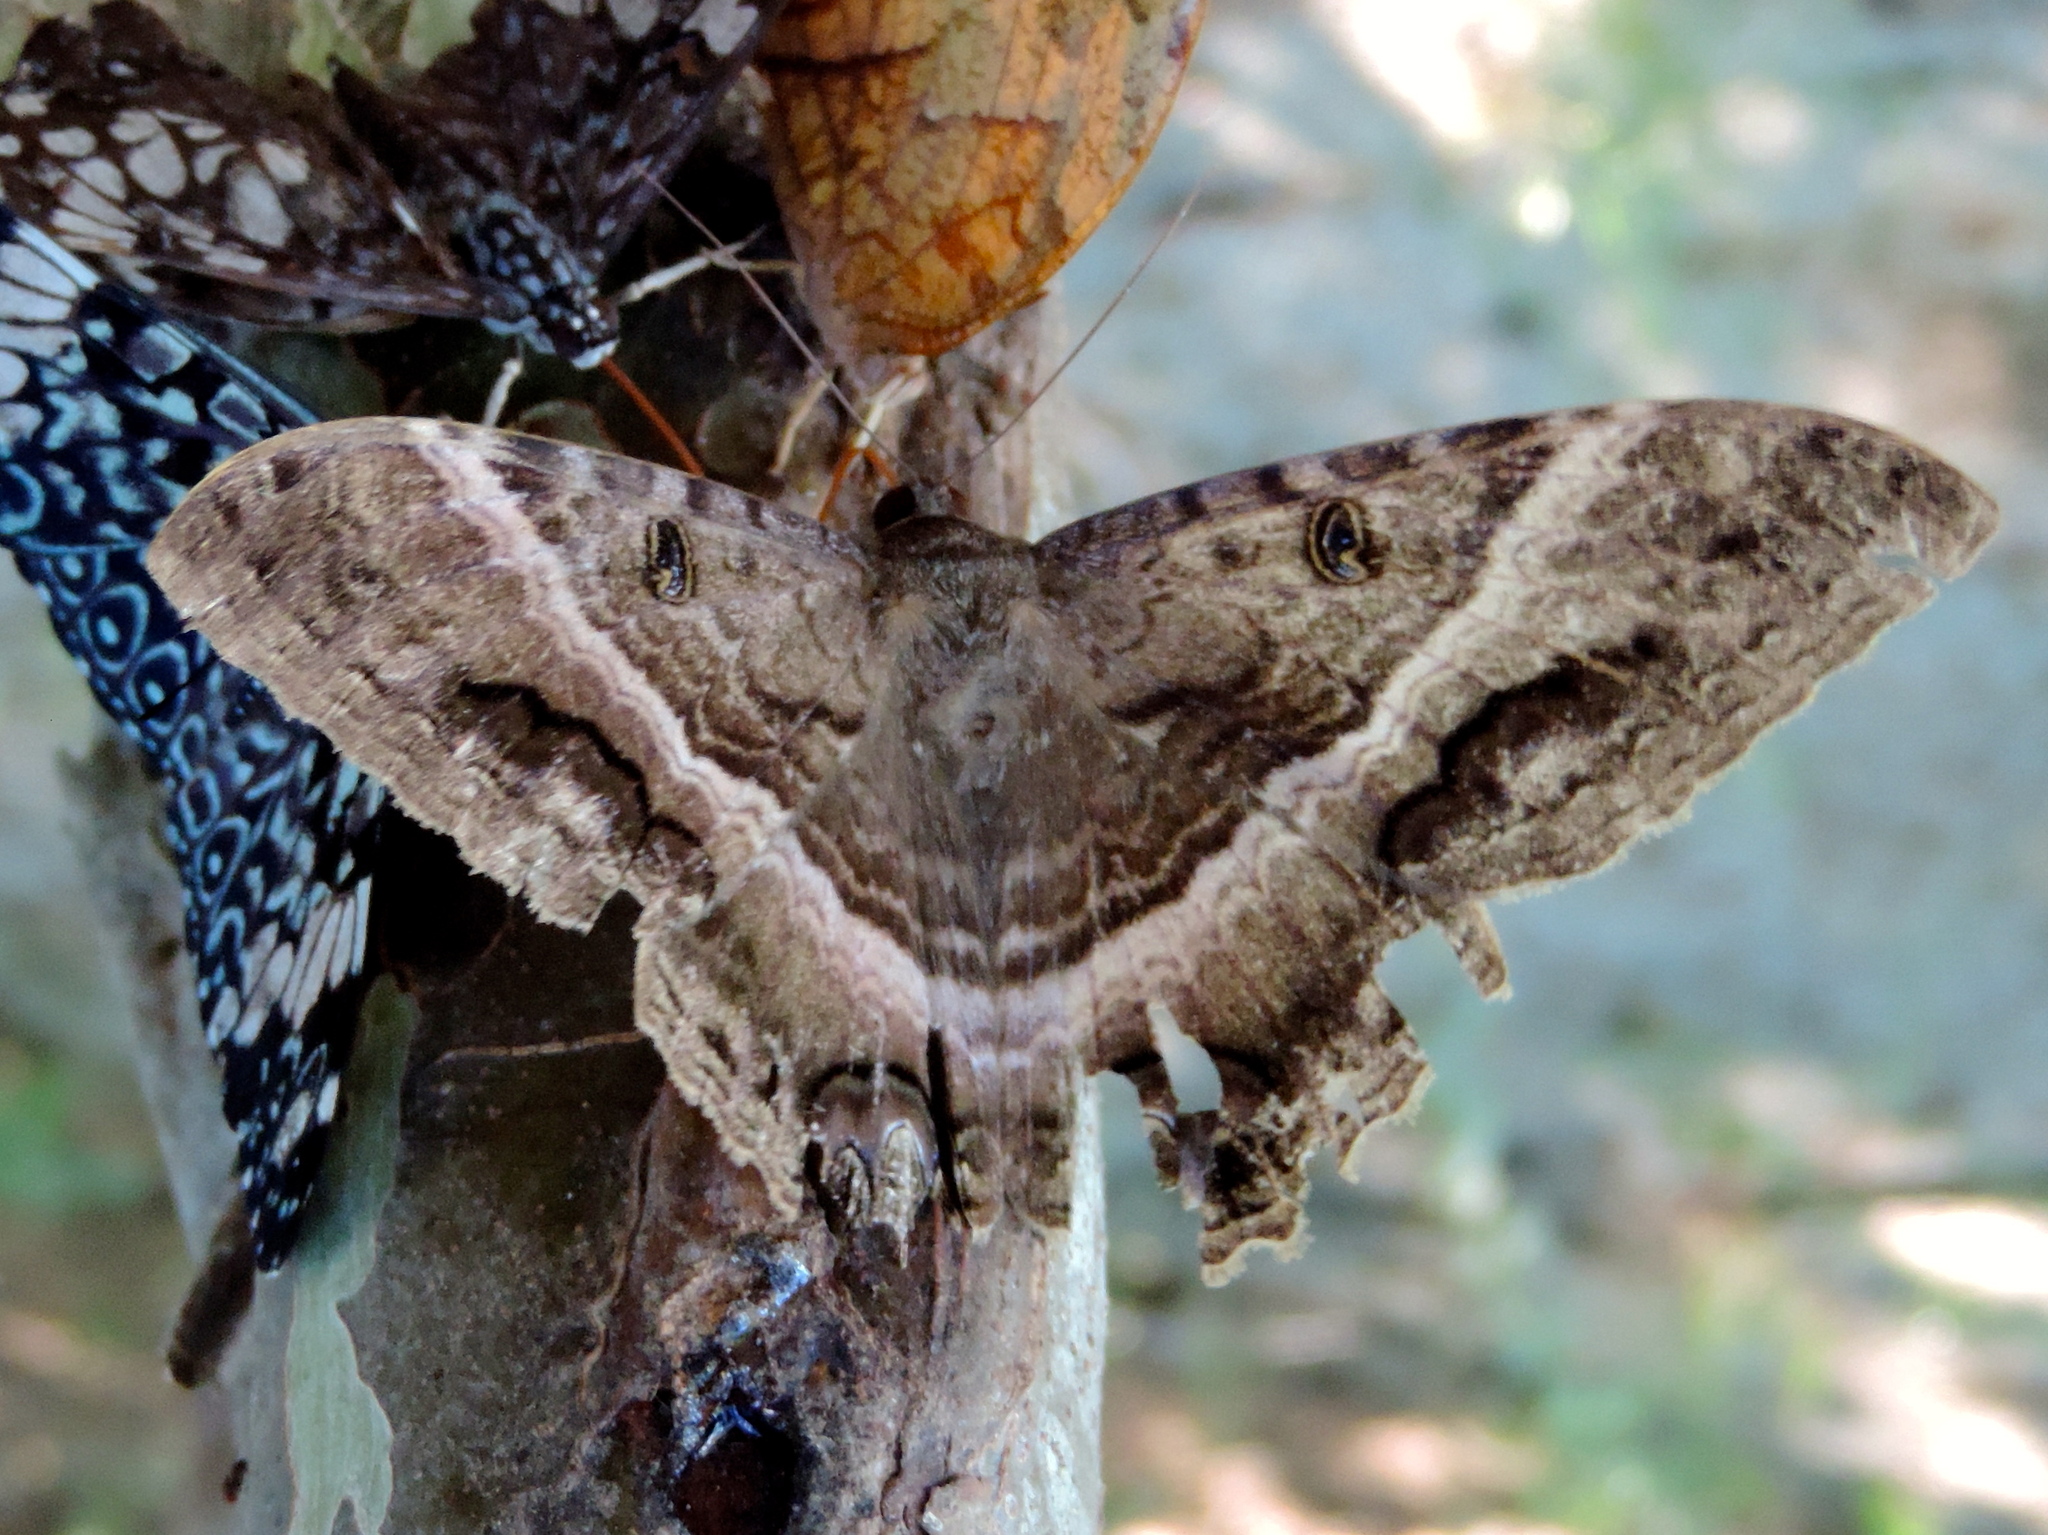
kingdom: Animalia
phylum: Arthropoda
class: Insecta
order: Lepidoptera
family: Erebidae
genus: Ascalapha
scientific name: Ascalapha odorata
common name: Black witch
